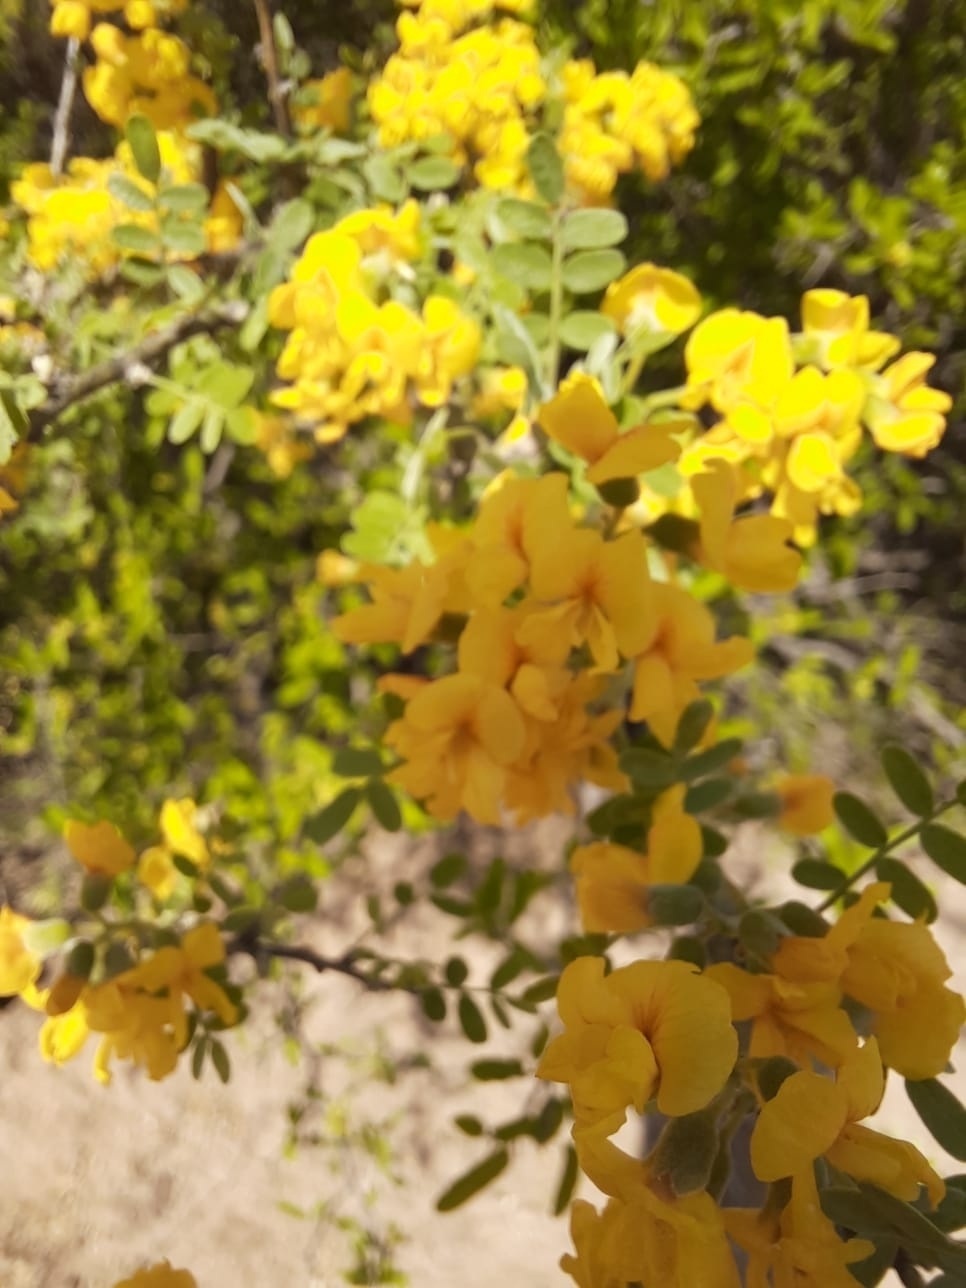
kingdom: Plantae
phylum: Tracheophyta
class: Magnoliopsida
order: Fabales
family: Fabaceae
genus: Geoffroea
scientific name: Geoffroea decorticans
